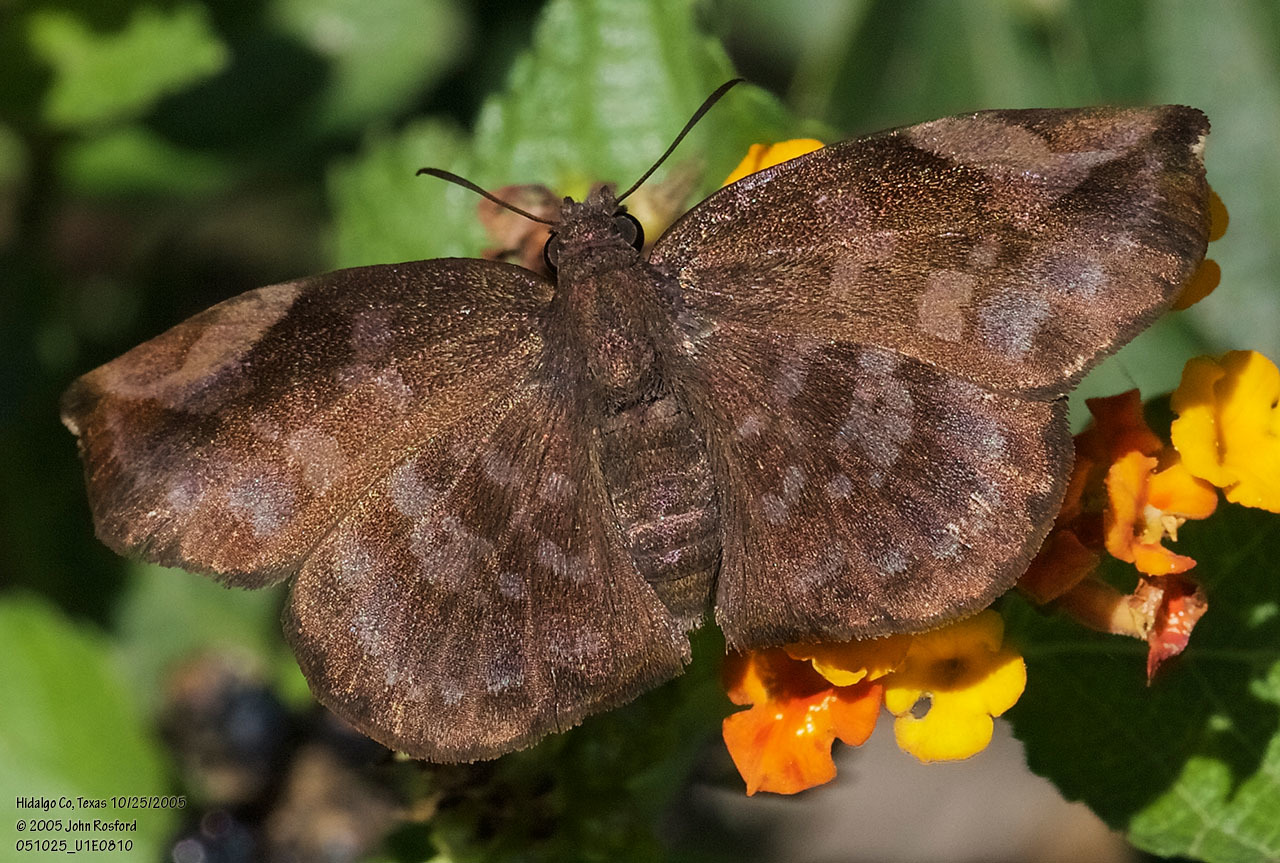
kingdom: Animalia
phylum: Arthropoda
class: Insecta
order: Lepidoptera
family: Hesperiidae
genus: Achlyodes
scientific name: Achlyodes thraso
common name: Sickle-winged skipper
